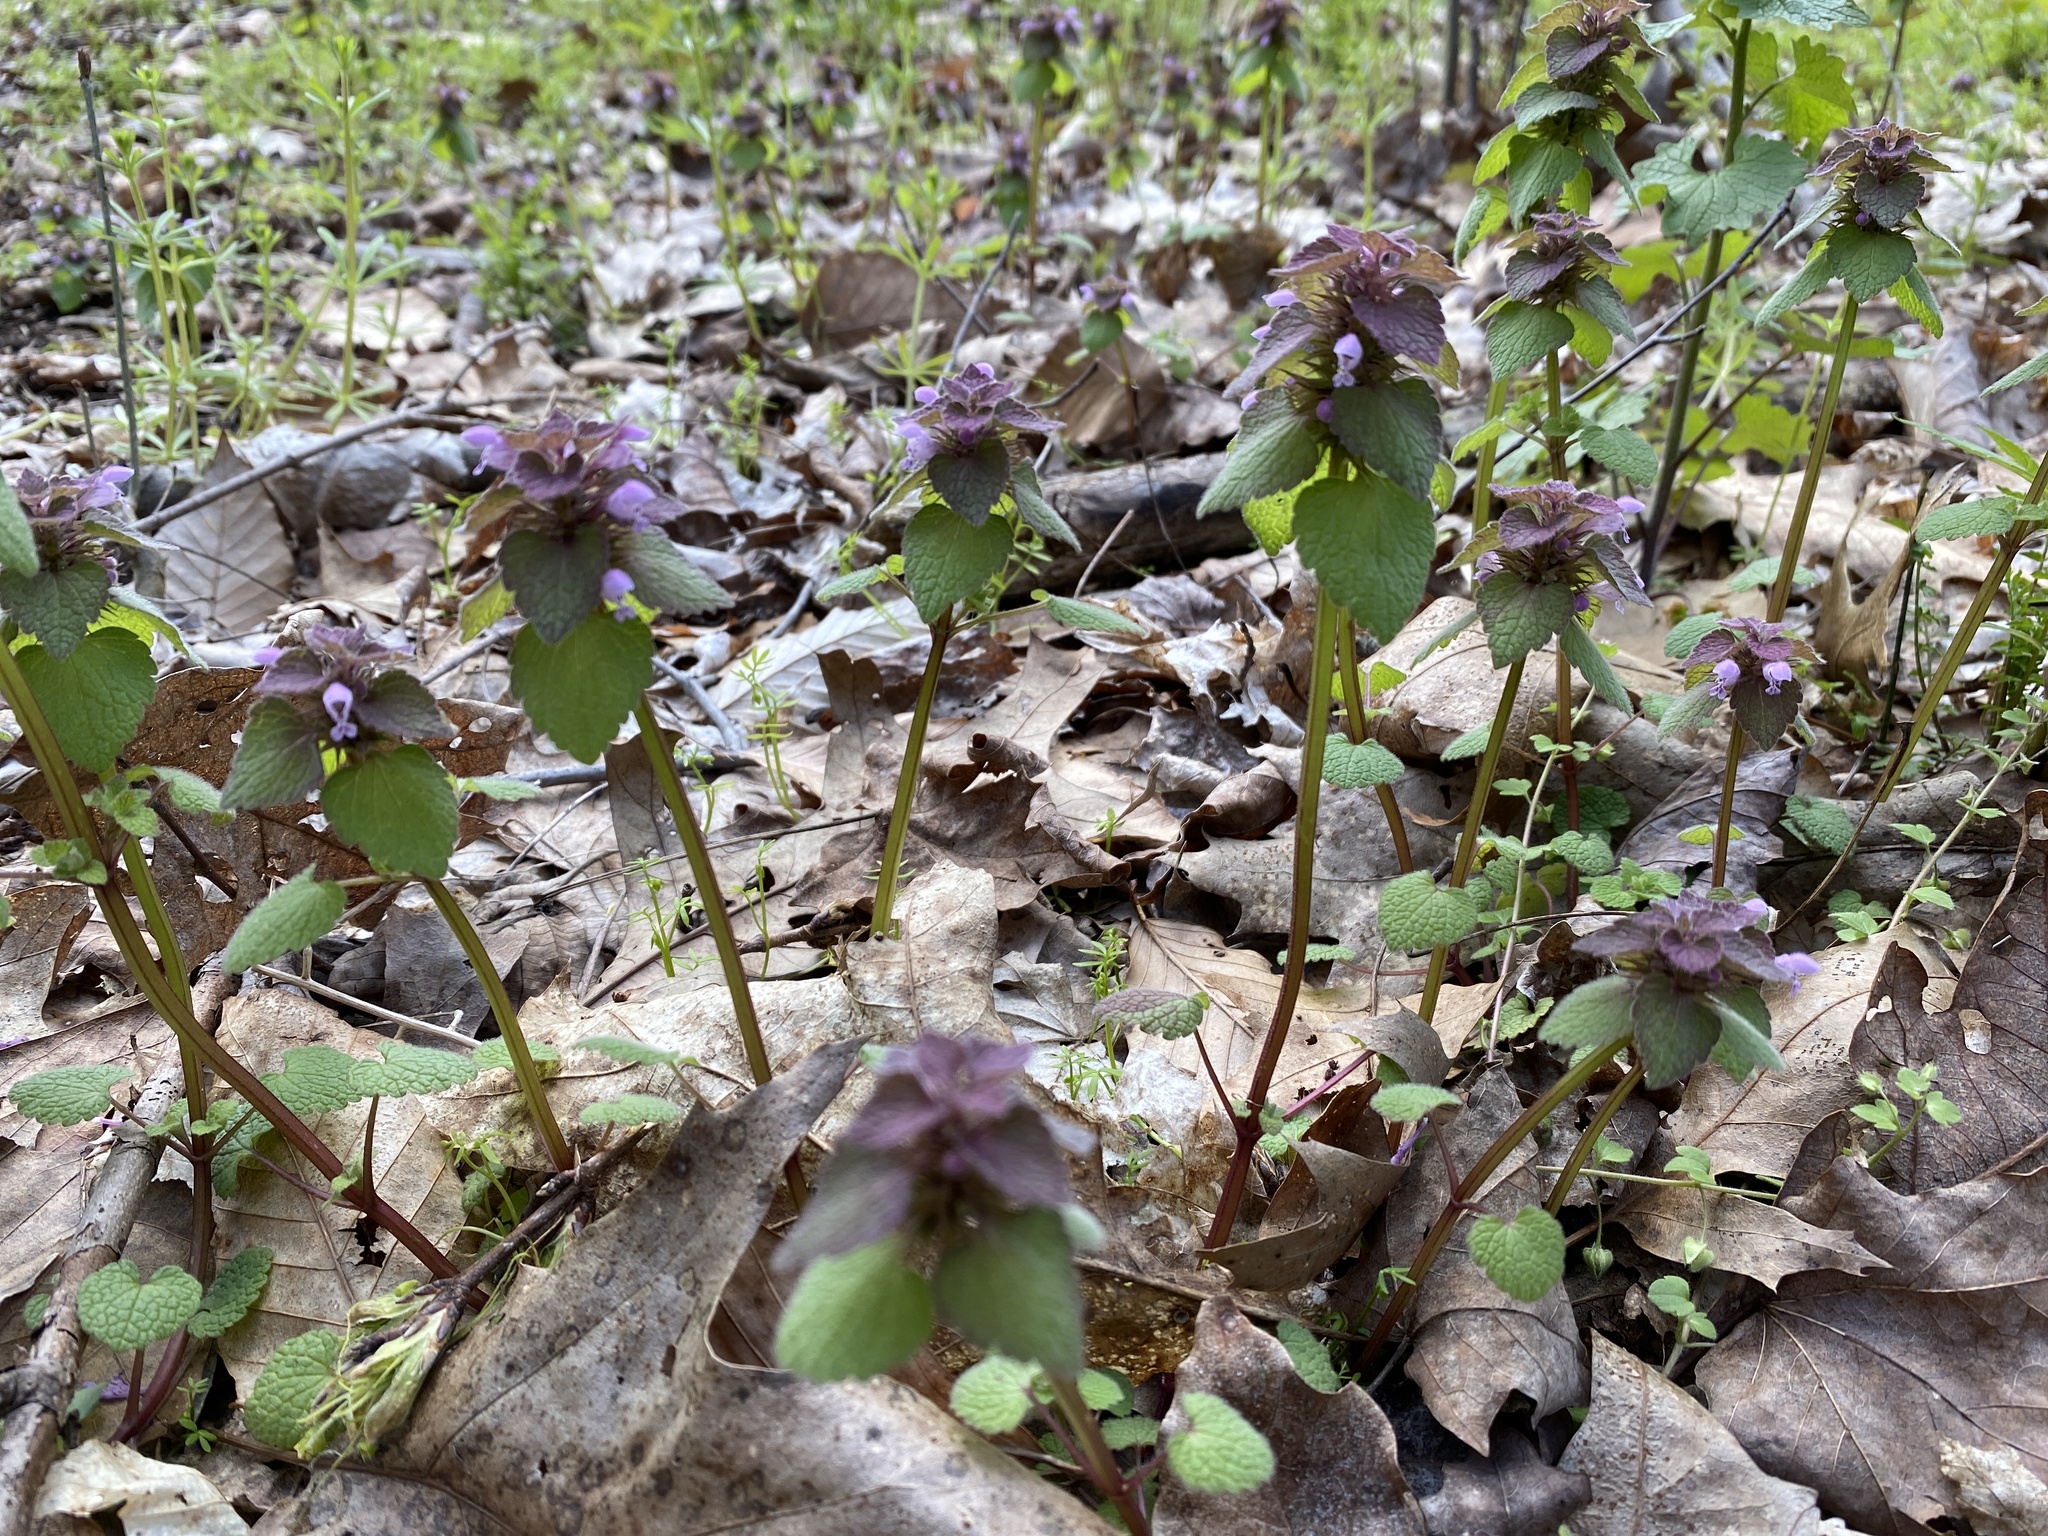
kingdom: Plantae
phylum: Tracheophyta
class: Magnoliopsida
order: Lamiales
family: Lamiaceae
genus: Lamium
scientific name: Lamium purpureum
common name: Red dead-nettle
